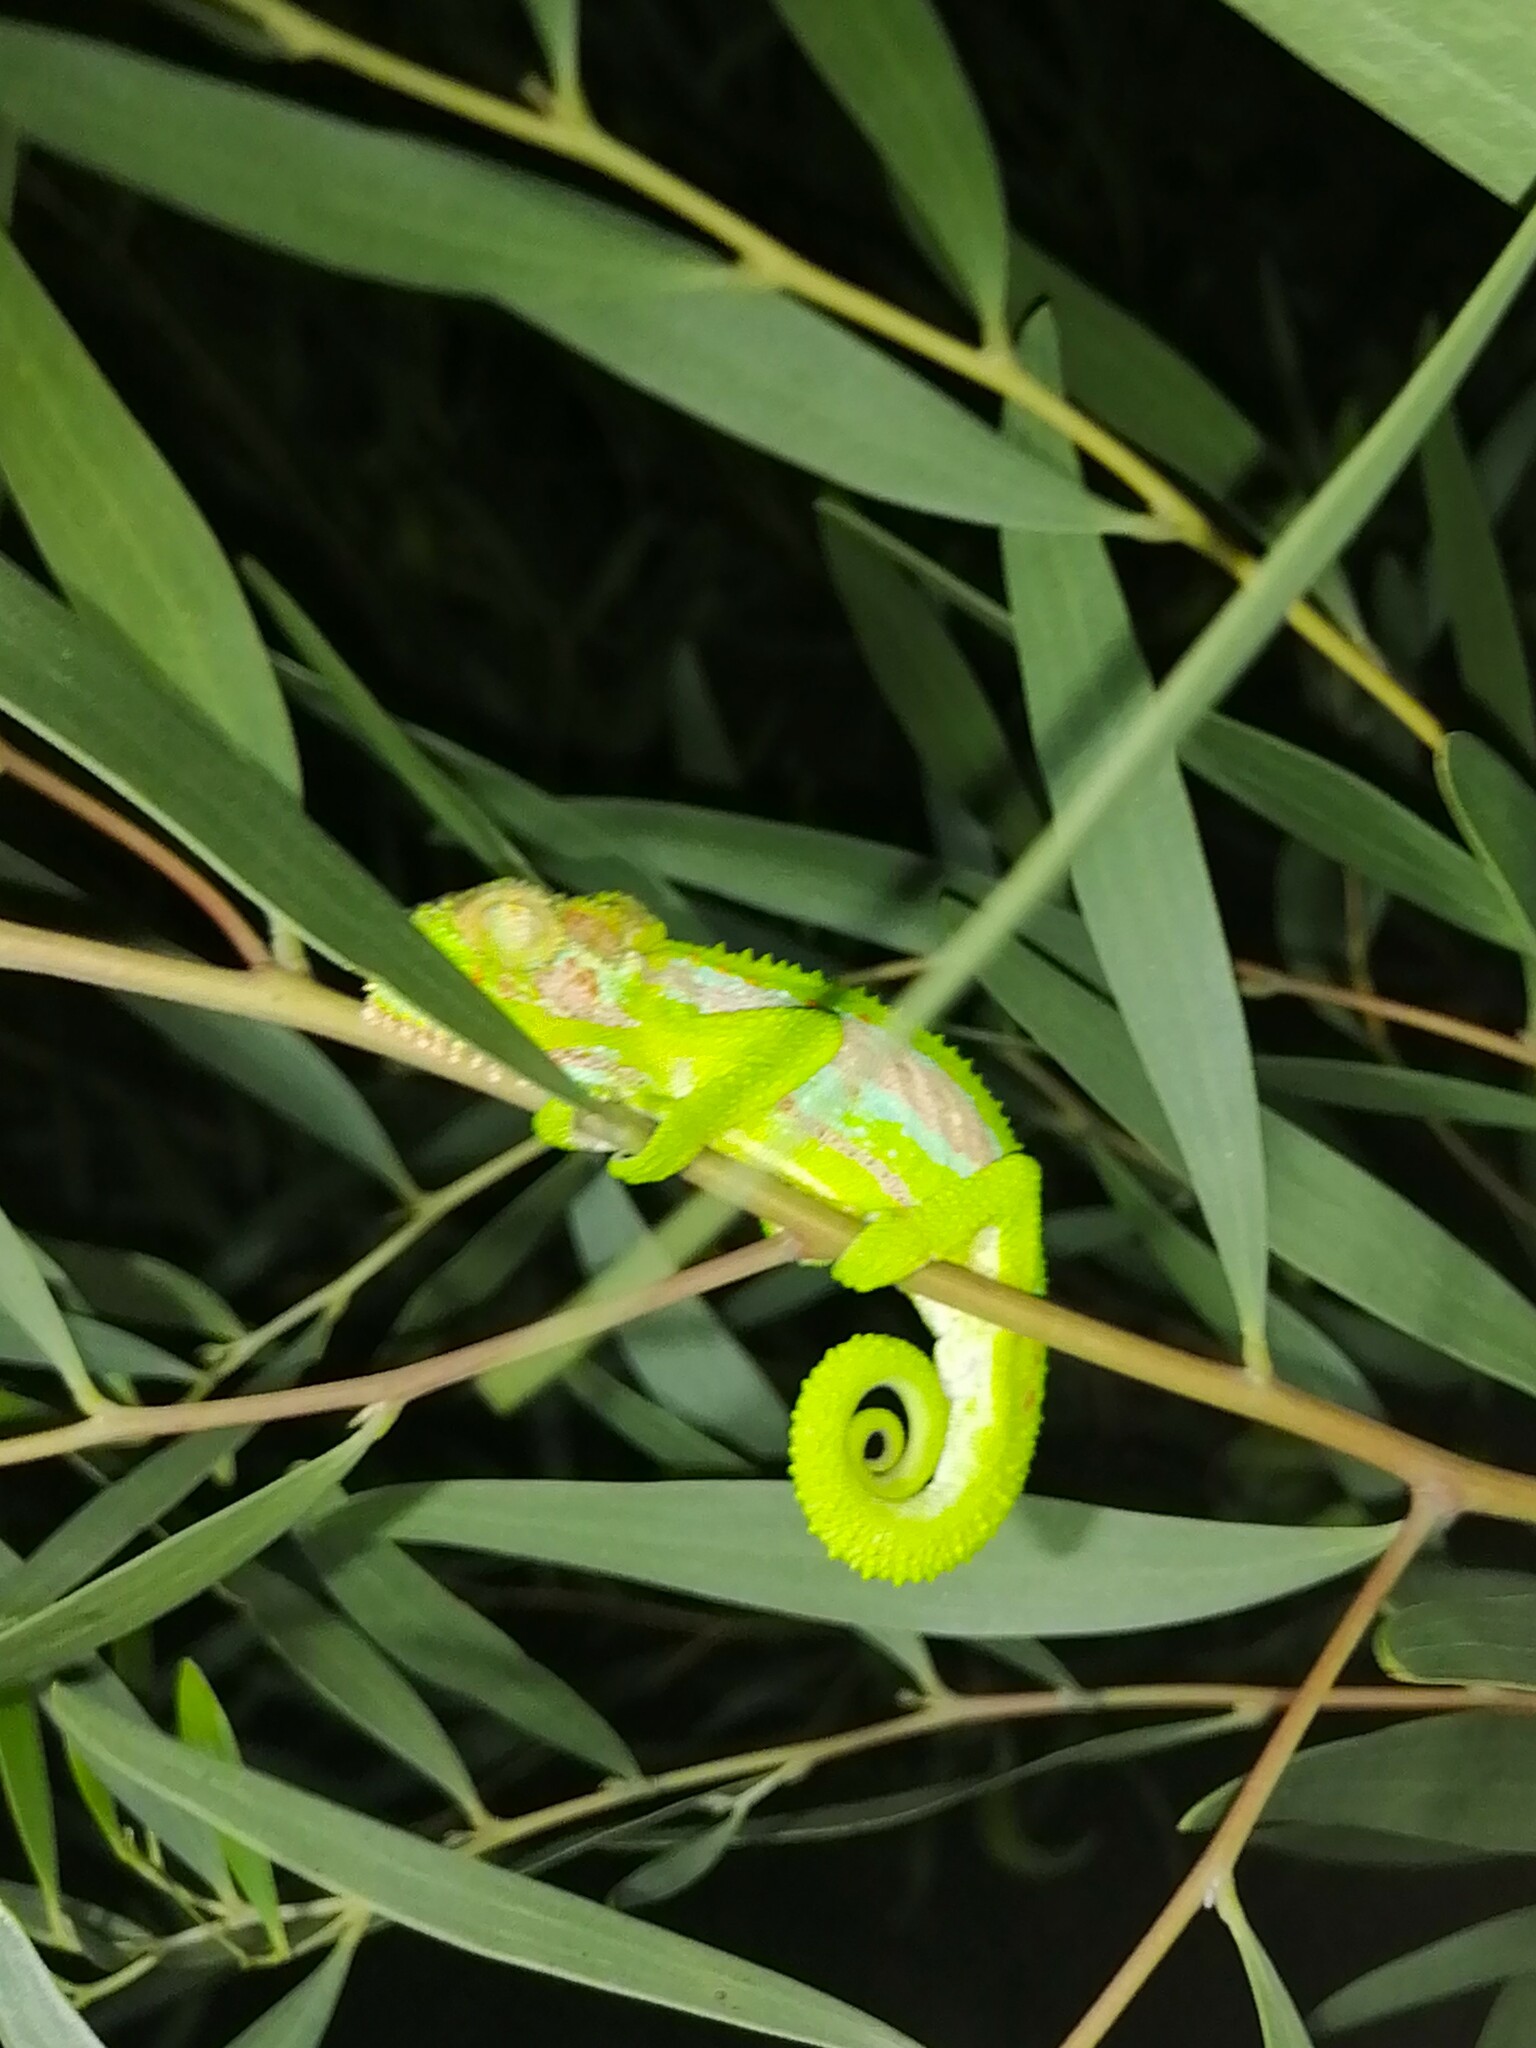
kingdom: Animalia
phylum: Chordata
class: Squamata
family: Chamaeleonidae
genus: Bradypodion
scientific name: Bradypodion pumilum
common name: Cape dwarf chameleon
